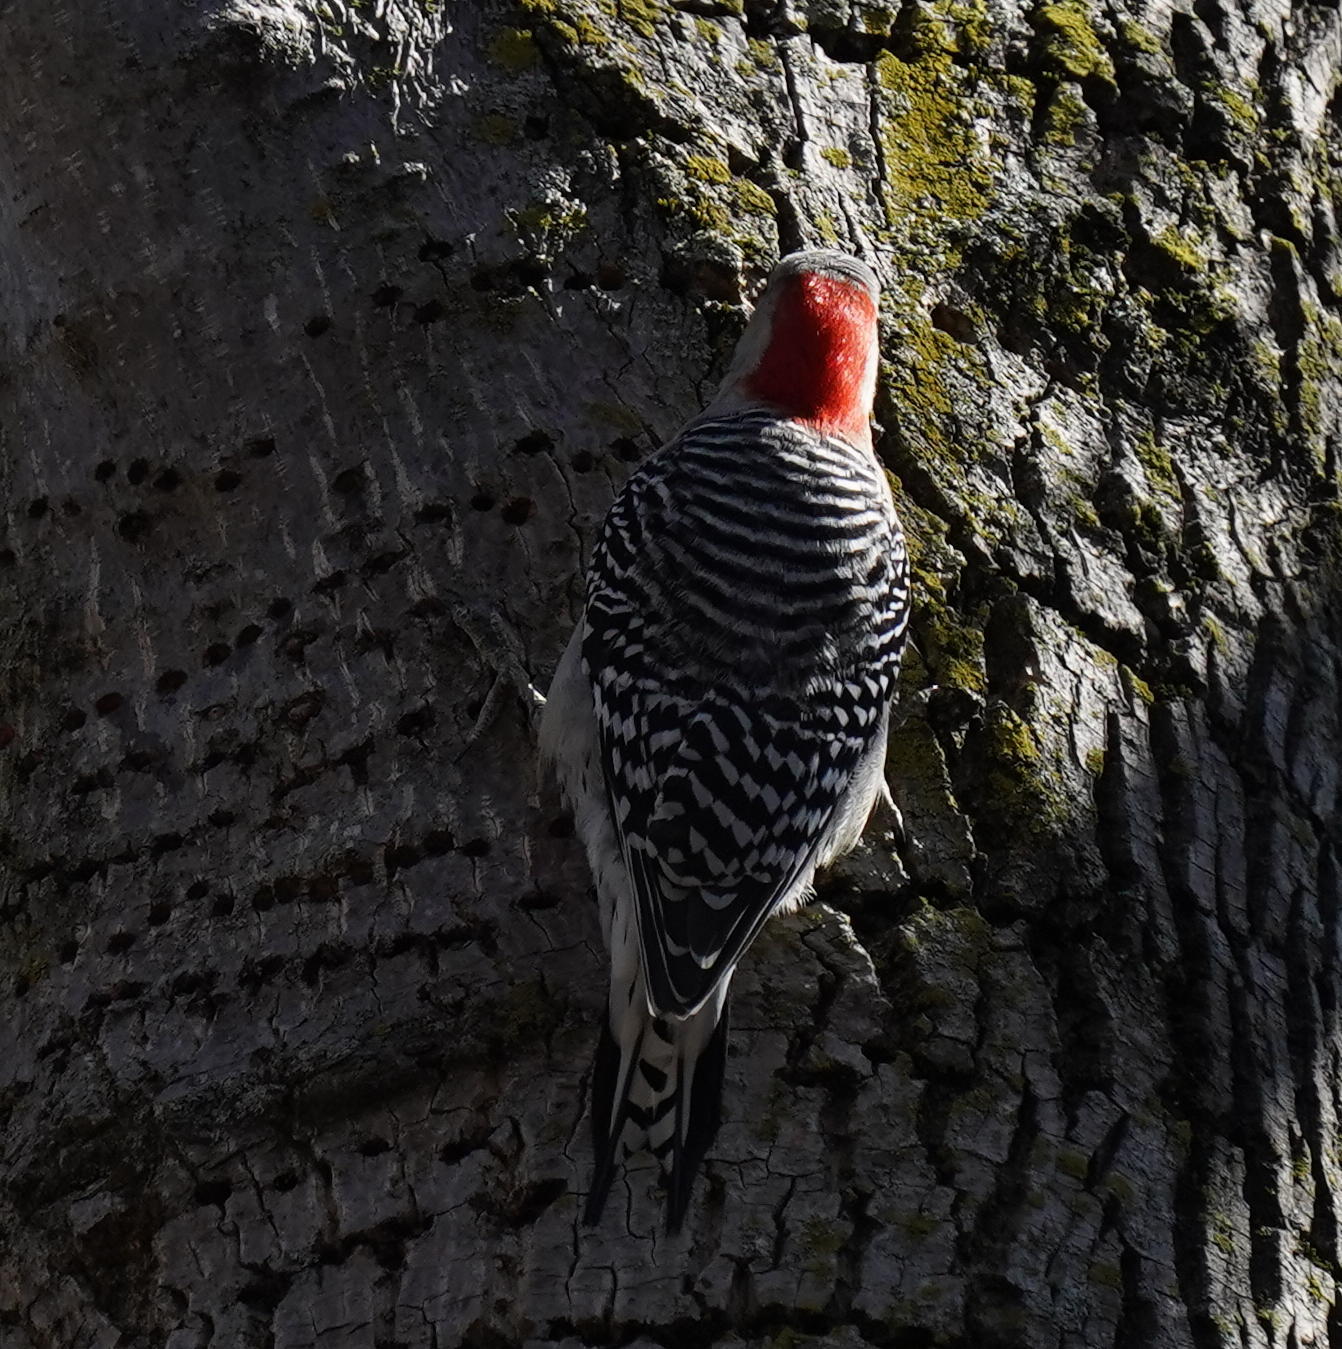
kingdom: Animalia
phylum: Chordata
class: Aves
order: Piciformes
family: Picidae
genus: Melanerpes
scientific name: Melanerpes carolinus
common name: Red-bellied woodpecker
